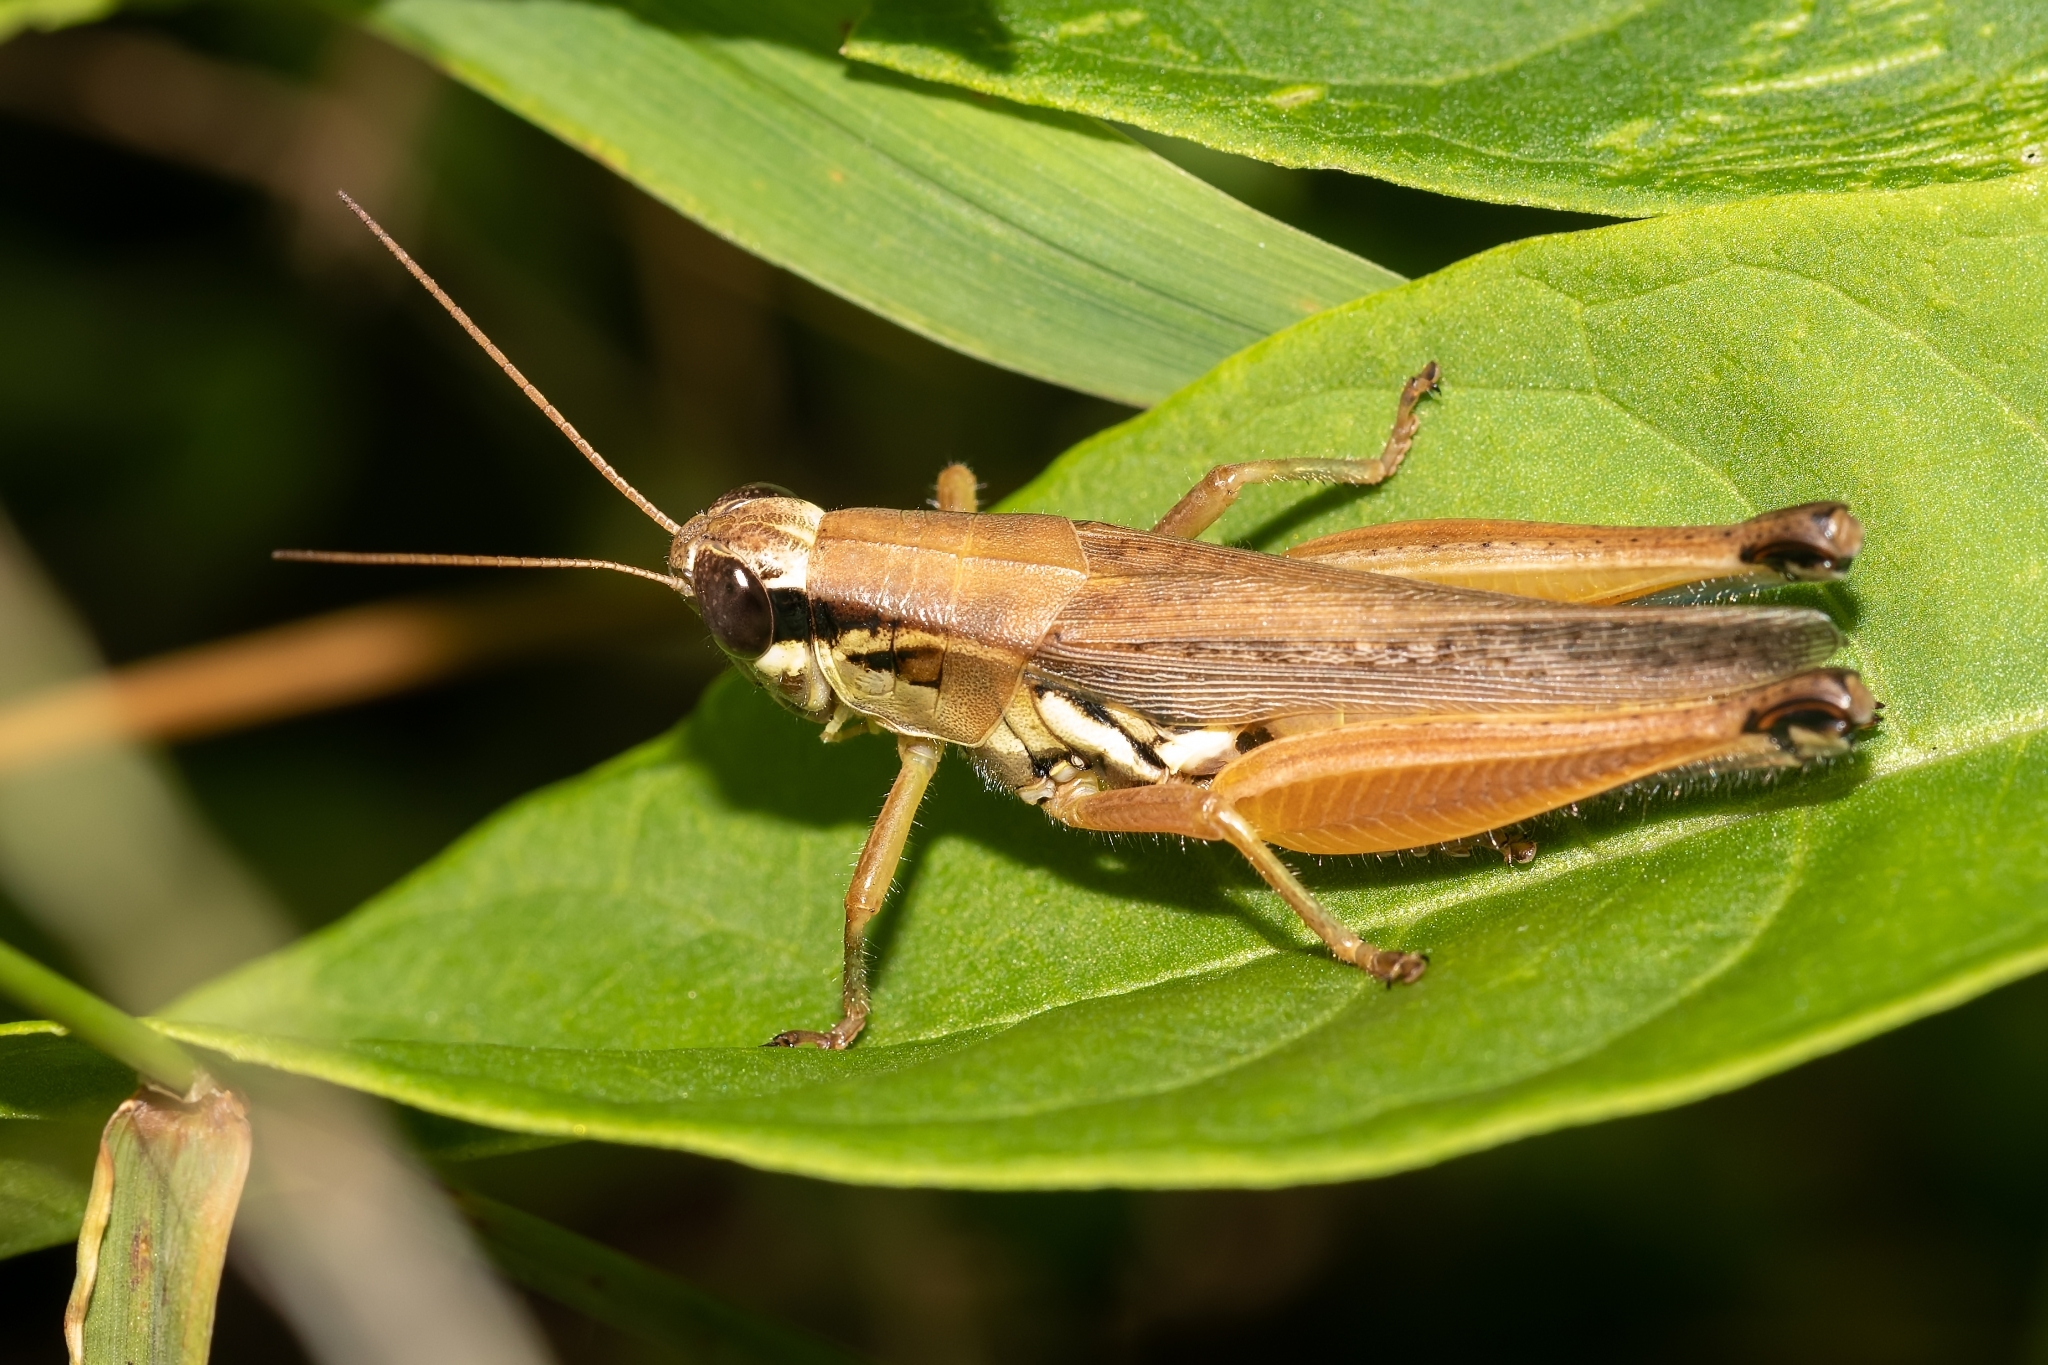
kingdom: Animalia
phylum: Arthropoda
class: Insecta
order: Orthoptera
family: Acrididae
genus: Paroxya
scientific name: Paroxya atlantica
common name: Atlantic grasshopper
